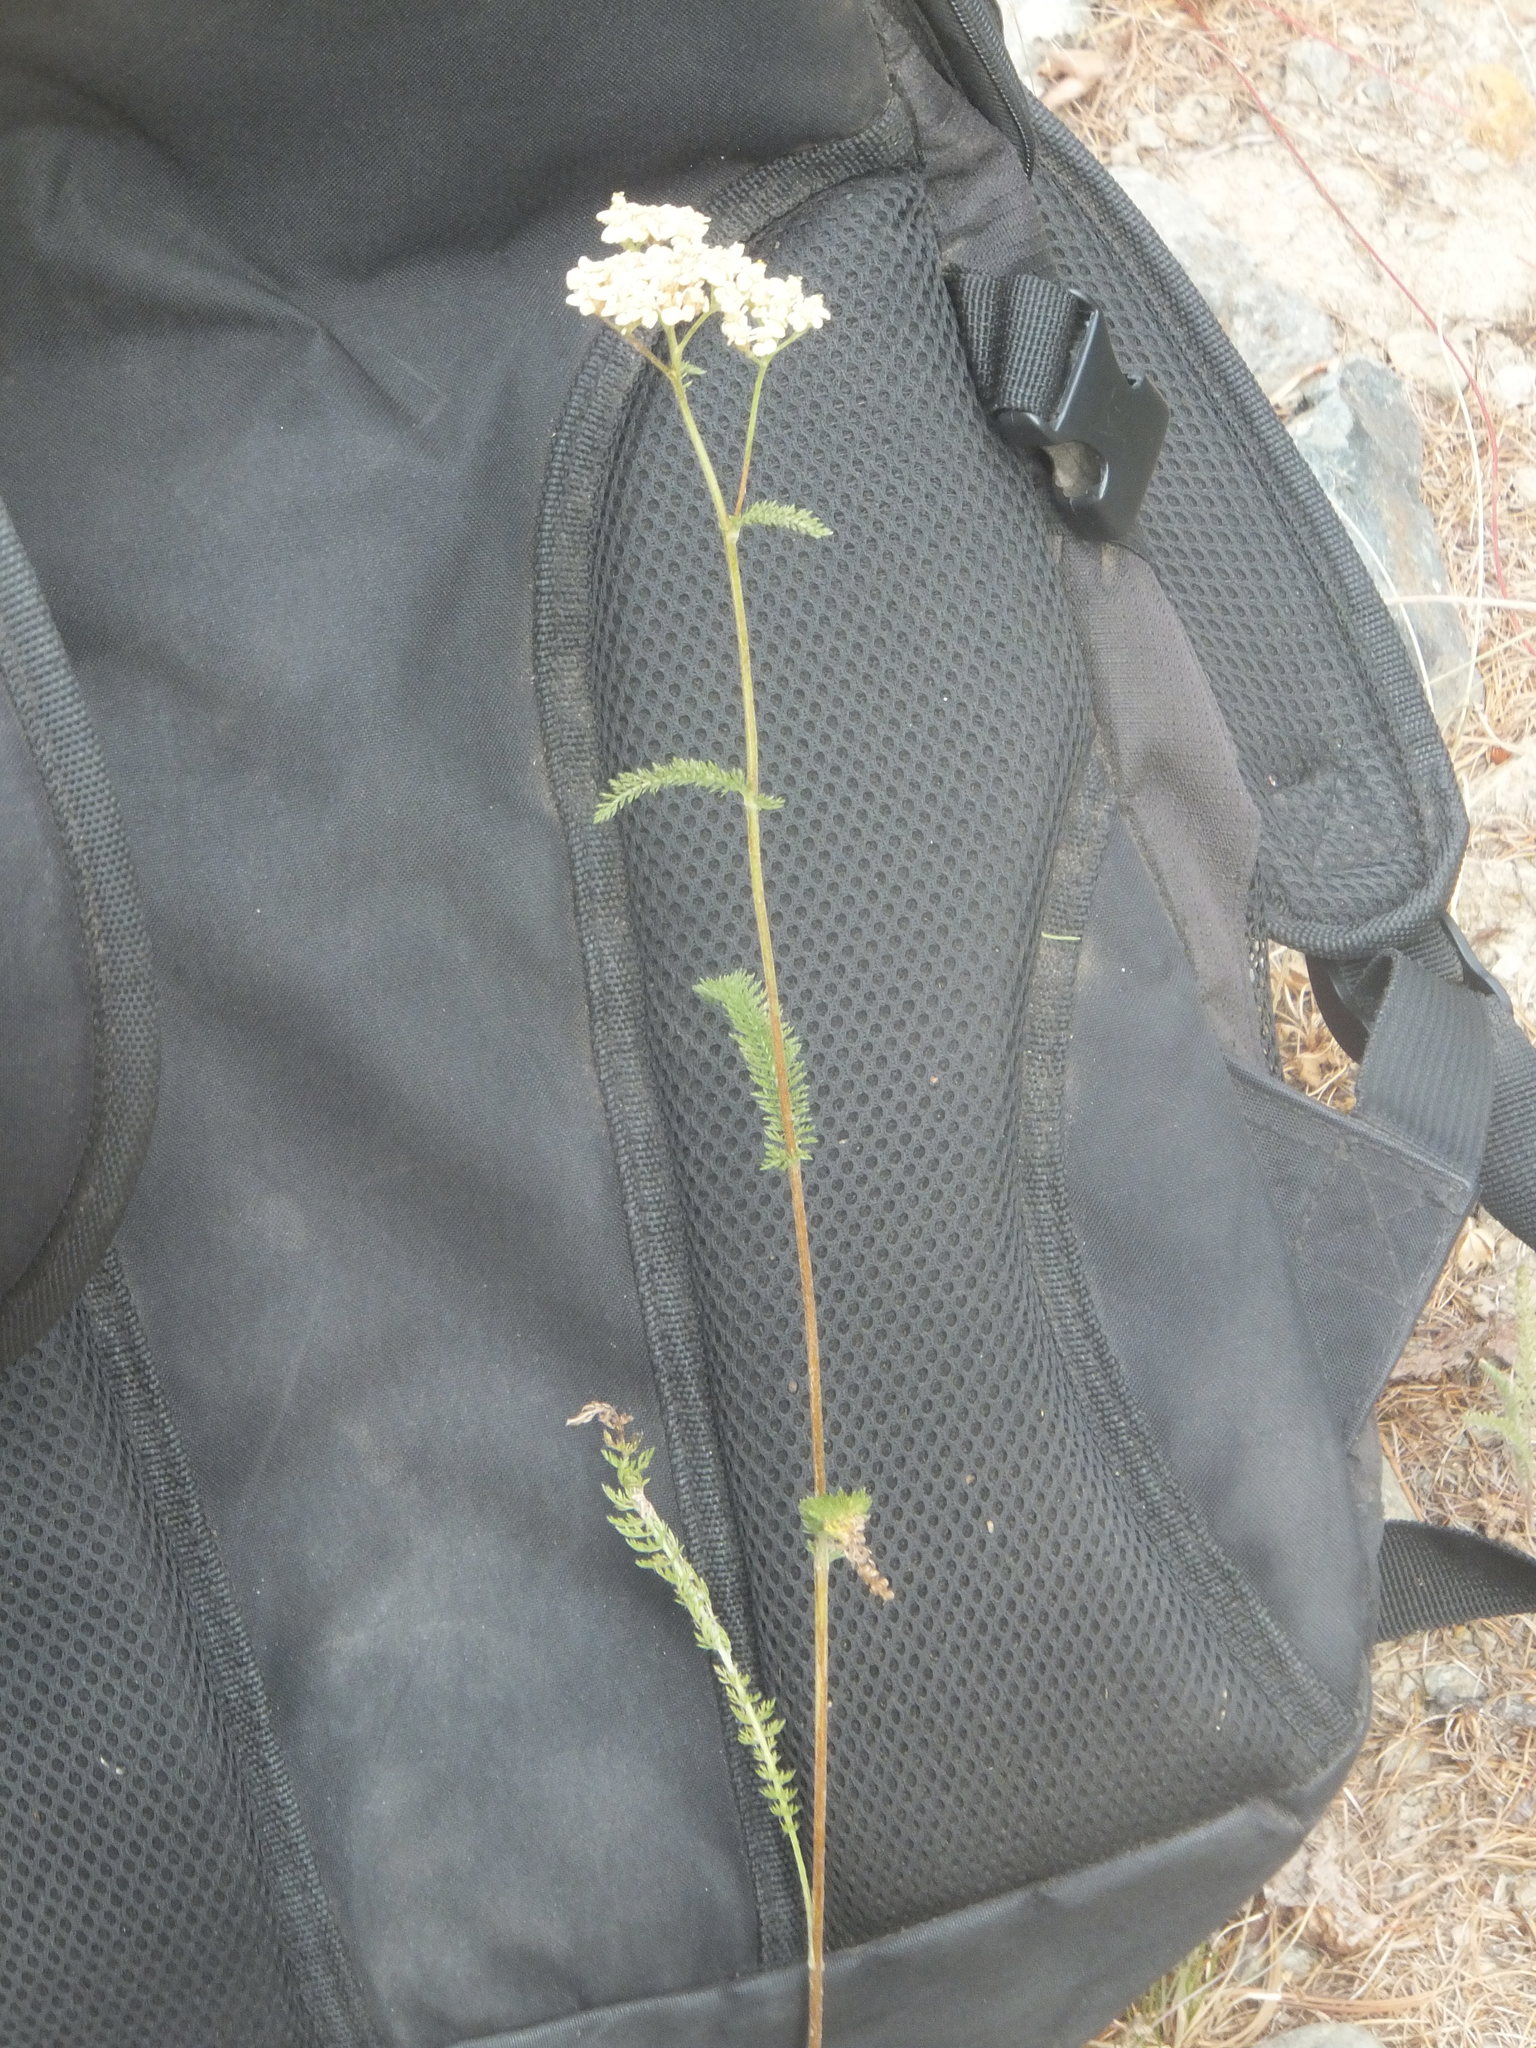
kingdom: Plantae
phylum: Tracheophyta
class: Magnoliopsida
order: Asterales
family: Asteraceae
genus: Achillea
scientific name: Achillea millefolium
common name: Yarrow
